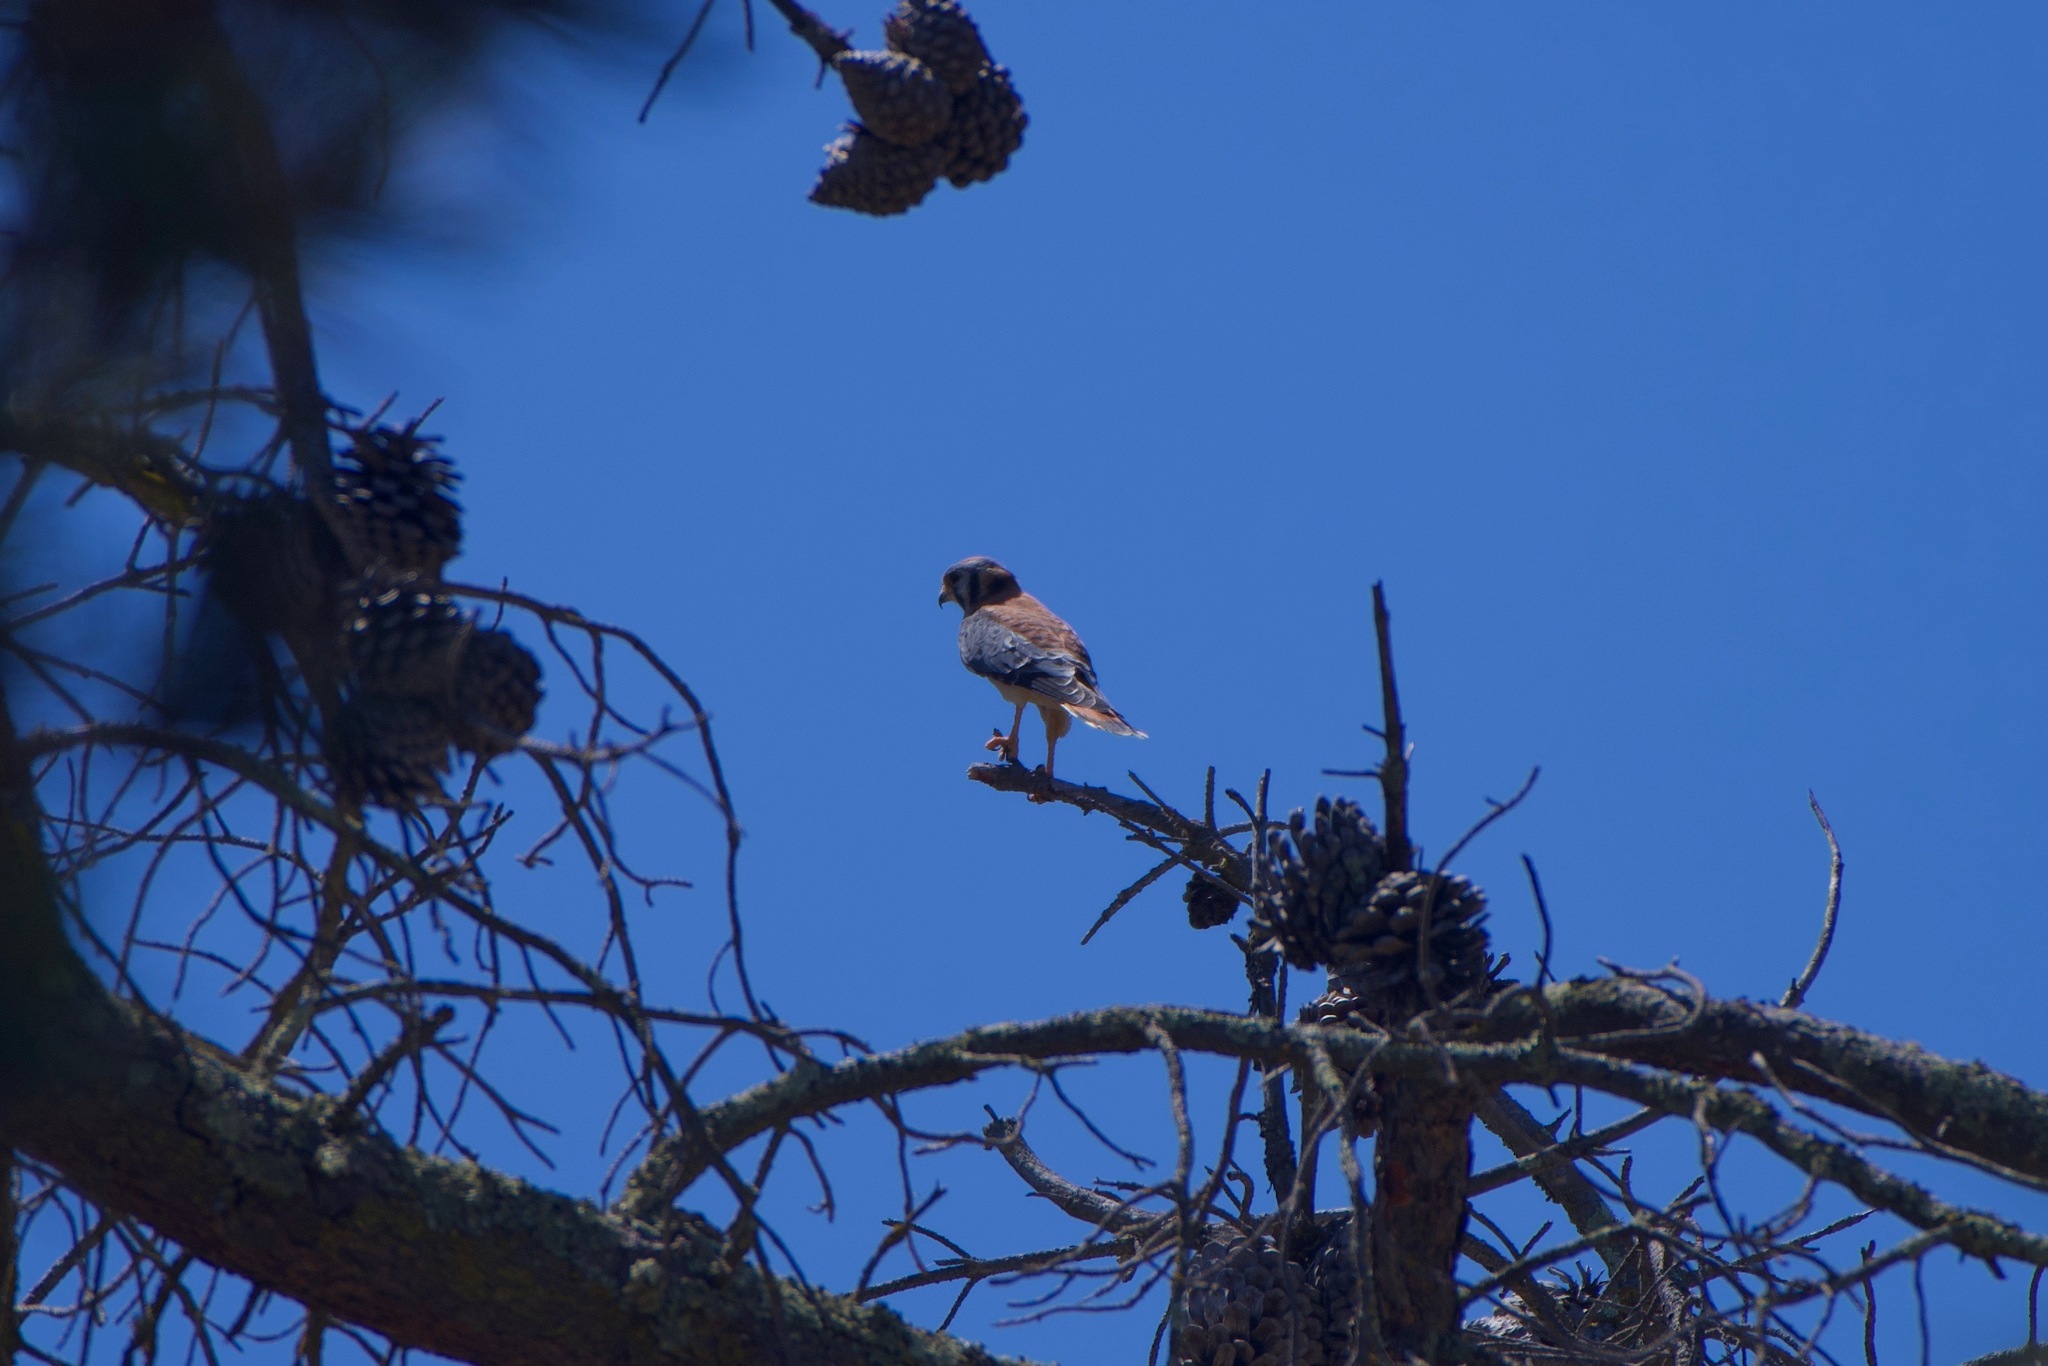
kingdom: Animalia
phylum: Chordata
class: Aves
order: Falconiformes
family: Falconidae
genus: Falco
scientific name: Falco sparverius
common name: American kestrel
